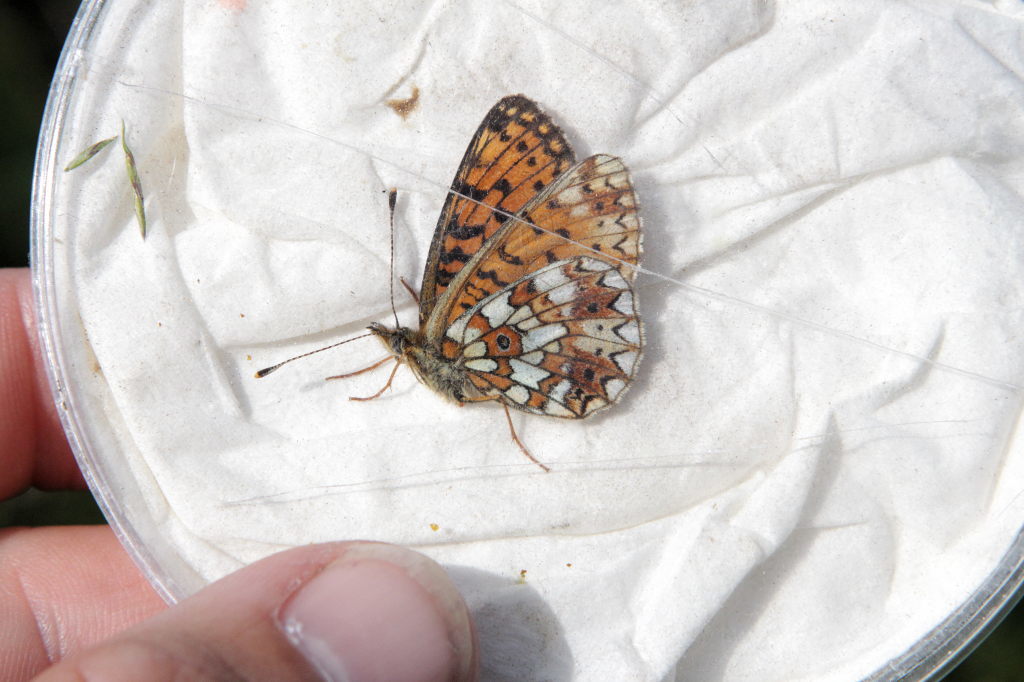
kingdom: Animalia
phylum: Arthropoda
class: Insecta
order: Lepidoptera
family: Nymphalidae
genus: Boloria
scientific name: Boloria selene
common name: Small pearl-bordered fritillary
